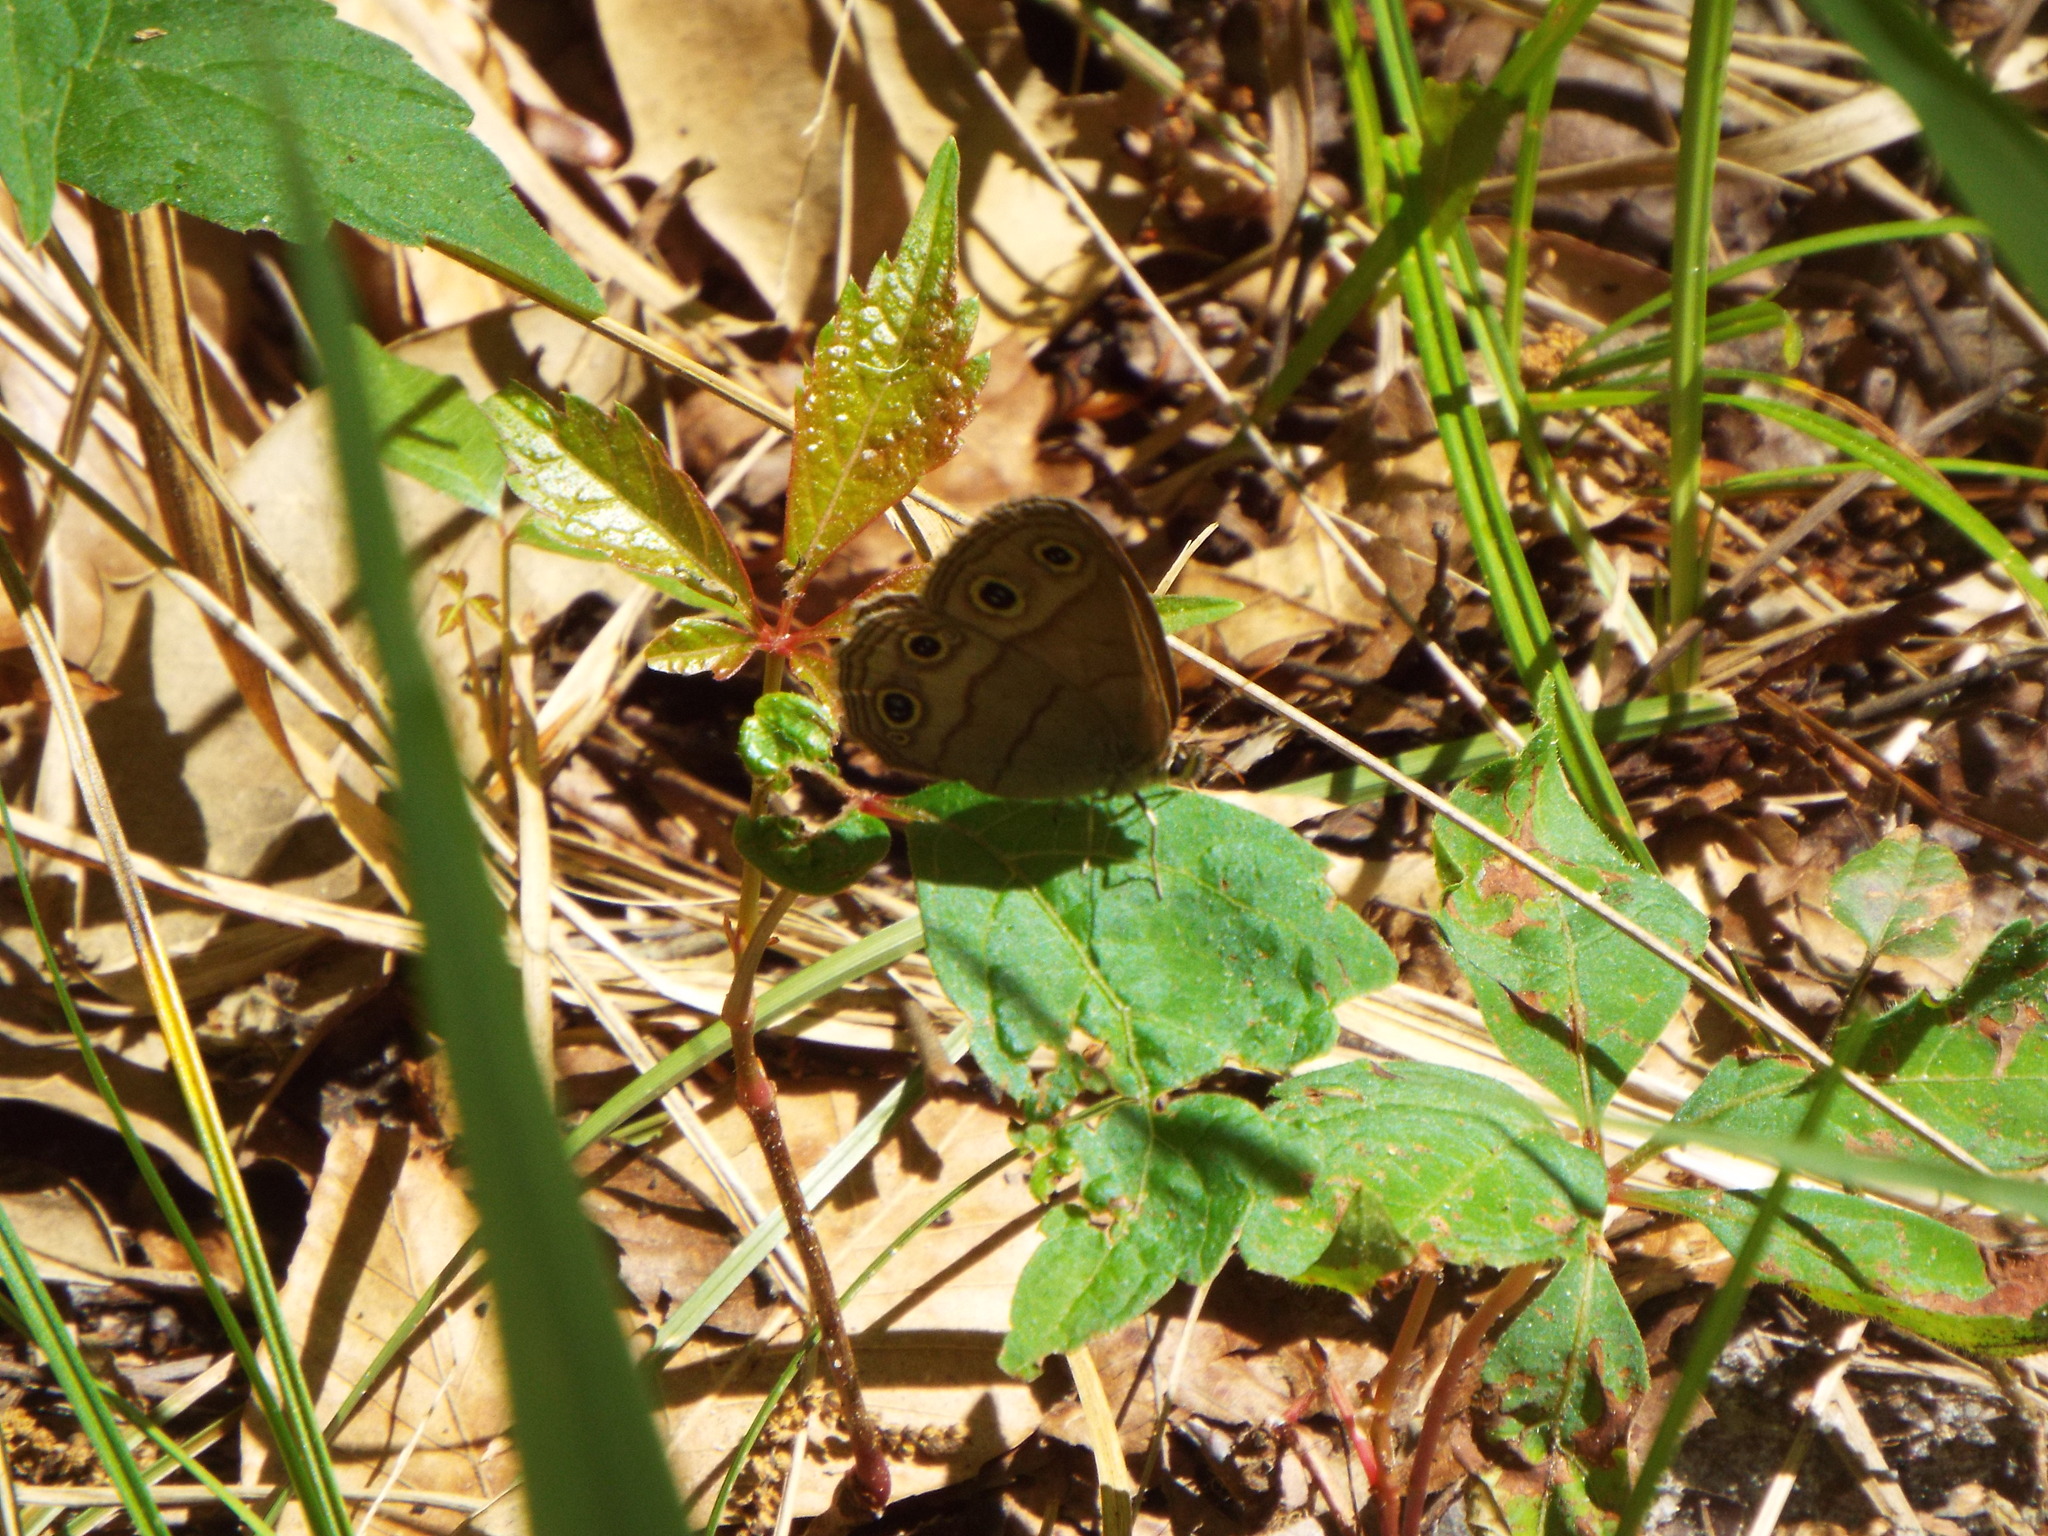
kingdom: Animalia
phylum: Arthropoda
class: Insecta
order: Lepidoptera
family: Nymphalidae
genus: Euptychia
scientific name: Euptychia cymela
